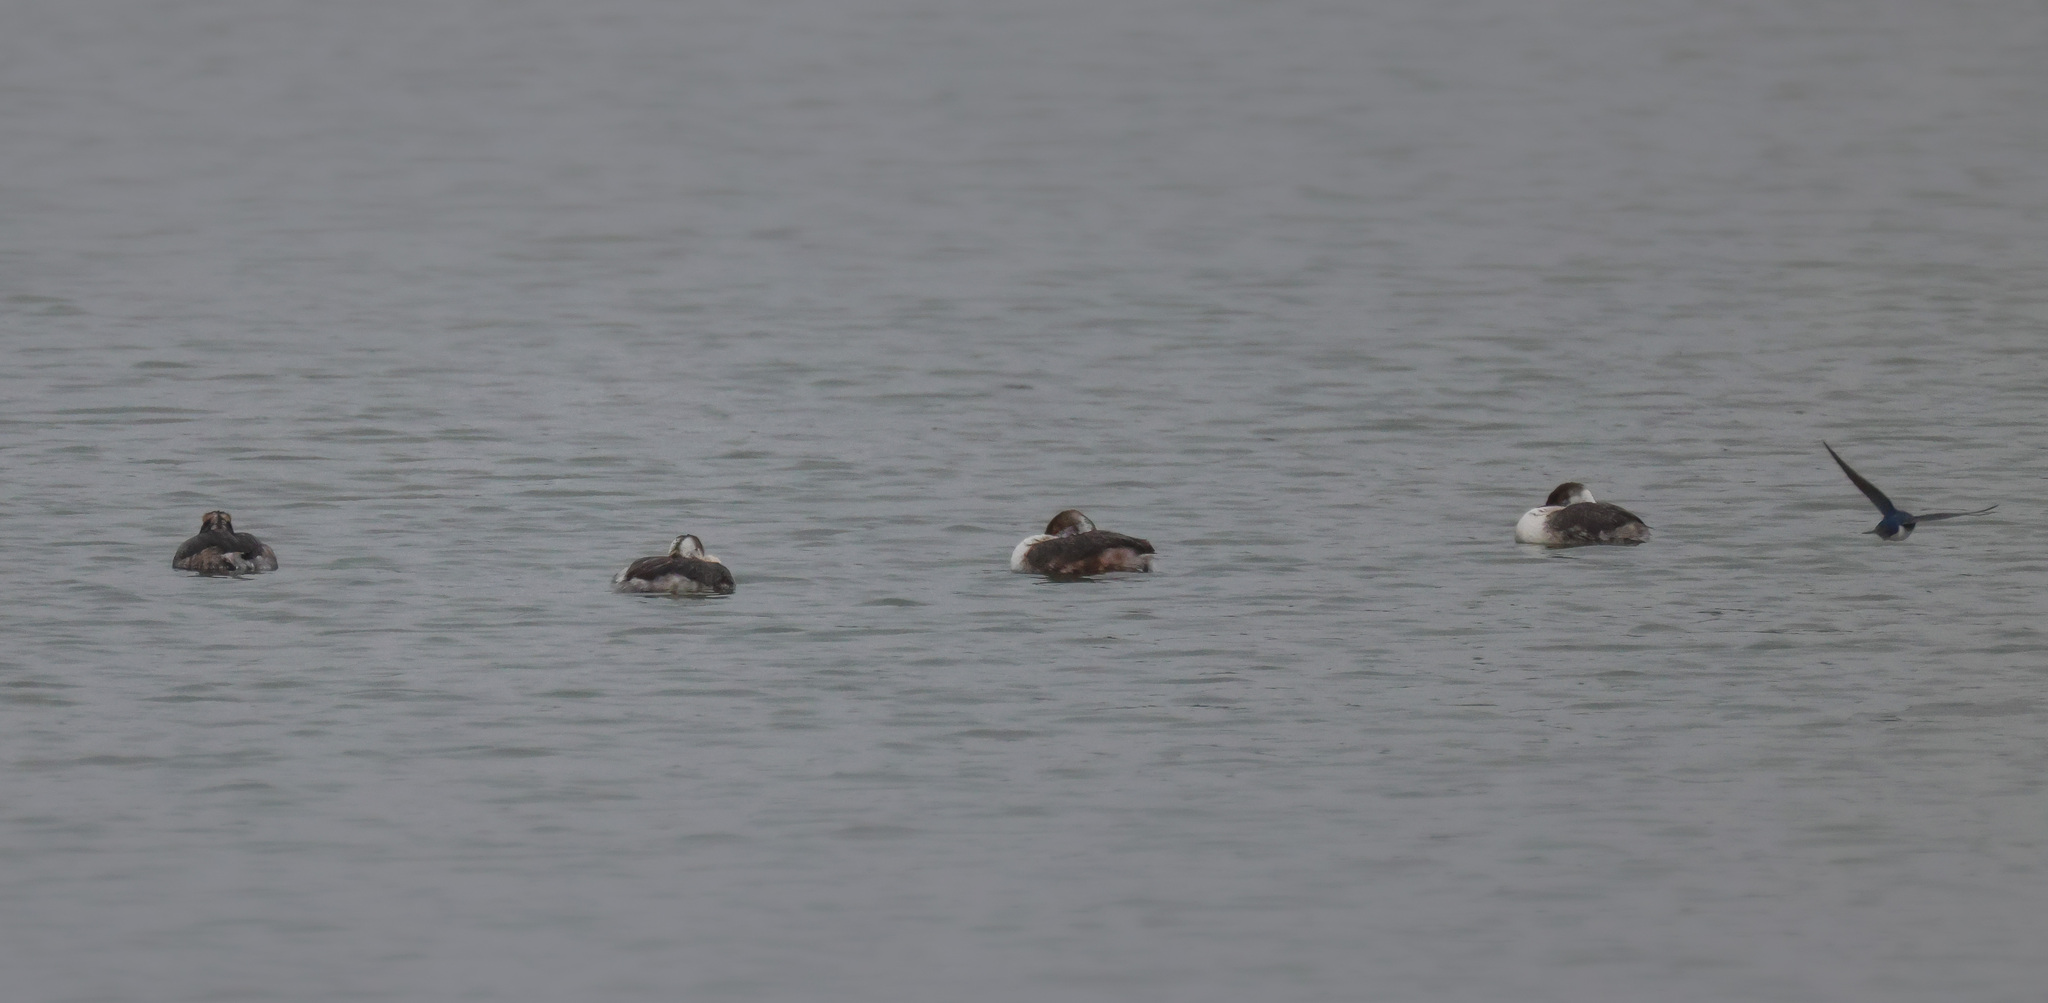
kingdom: Animalia
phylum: Chordata
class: Aves
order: Podicipediformes
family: Podicipedidae
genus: Podiceps
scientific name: Podiceps auritus
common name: Horned grebe
